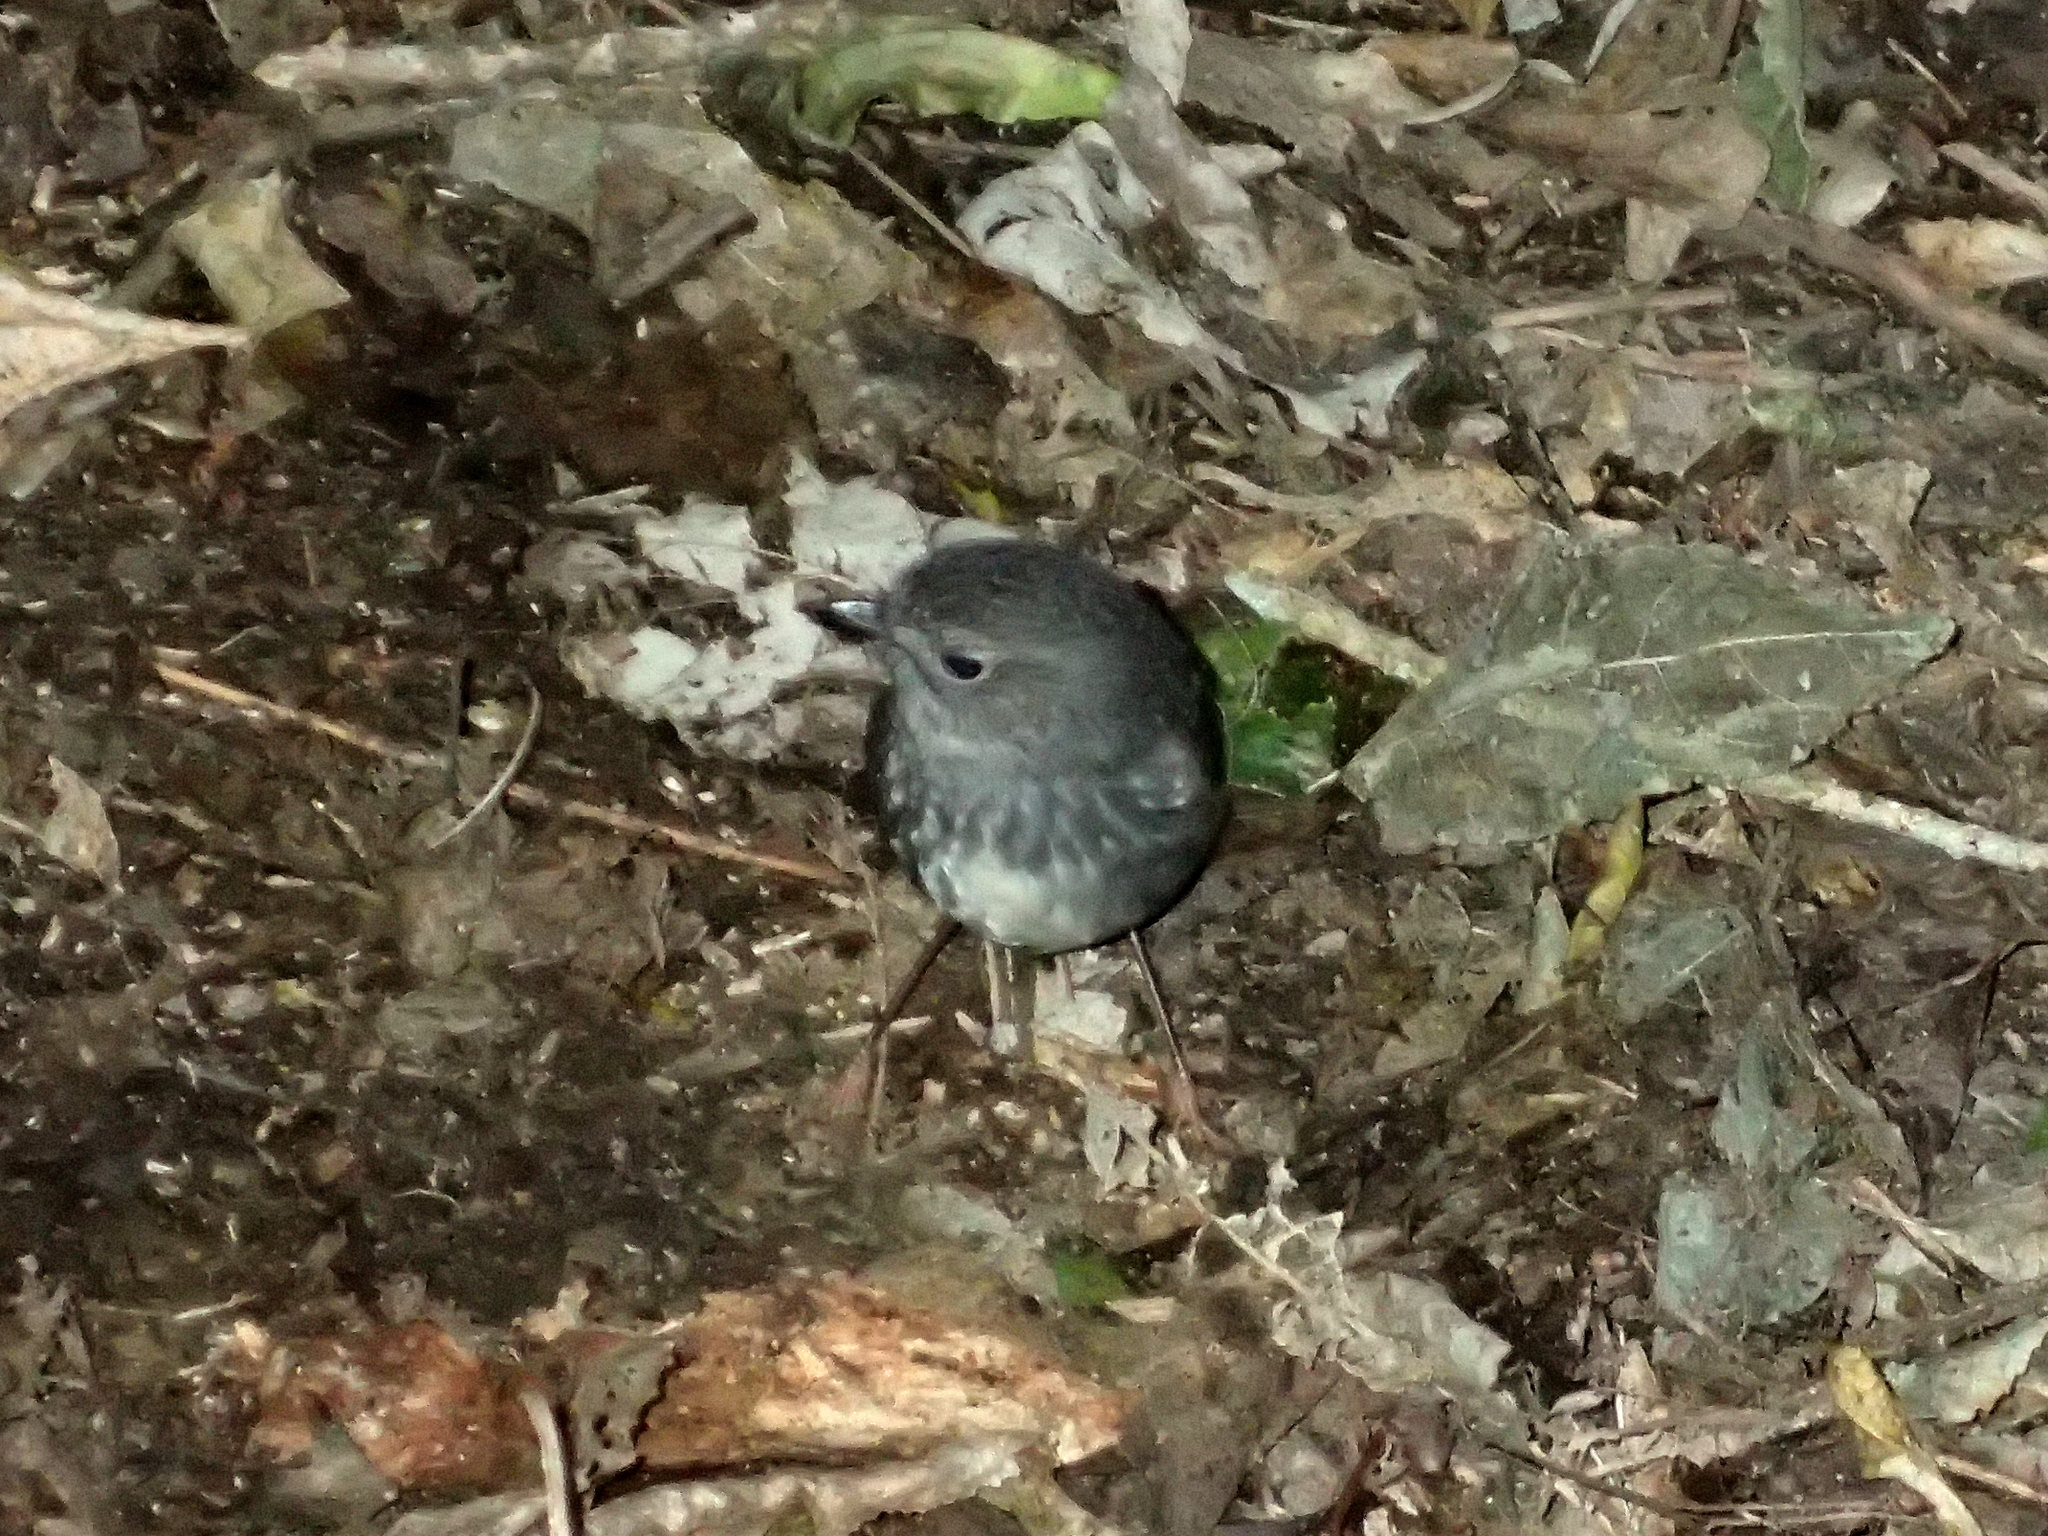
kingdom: Animalia
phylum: Chordata
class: Aves
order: Passeriformes
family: Petroicidae
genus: Petroica
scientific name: Petroica australis
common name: New zealand robin
